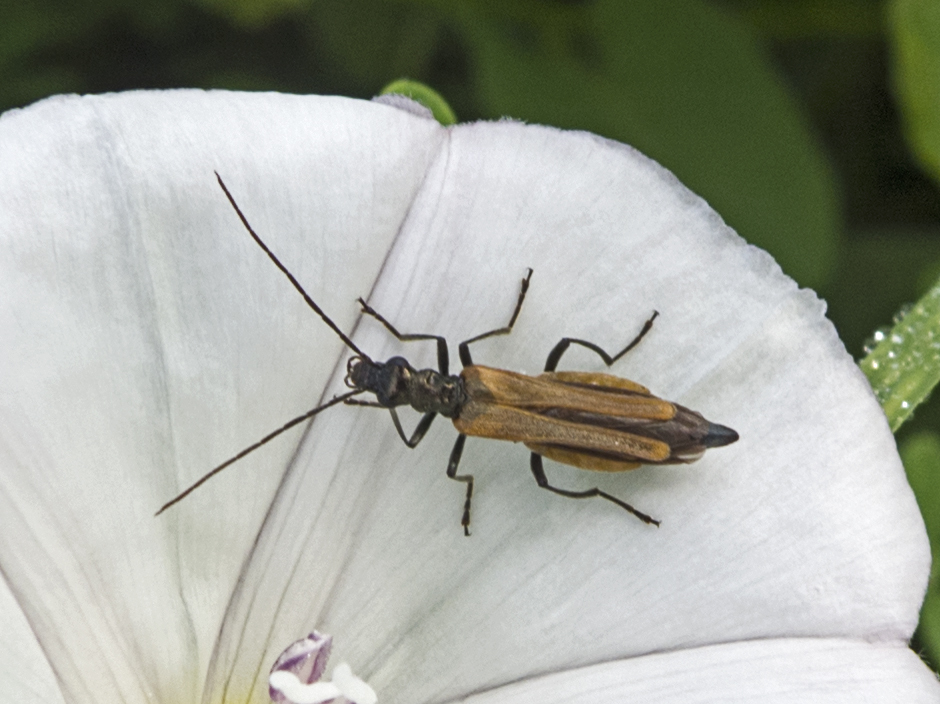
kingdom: Animalia
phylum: Arthropoda
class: Insecta
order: Coleoptera
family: Oedemeridae
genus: Oedemera
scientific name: Oedemera femorata
